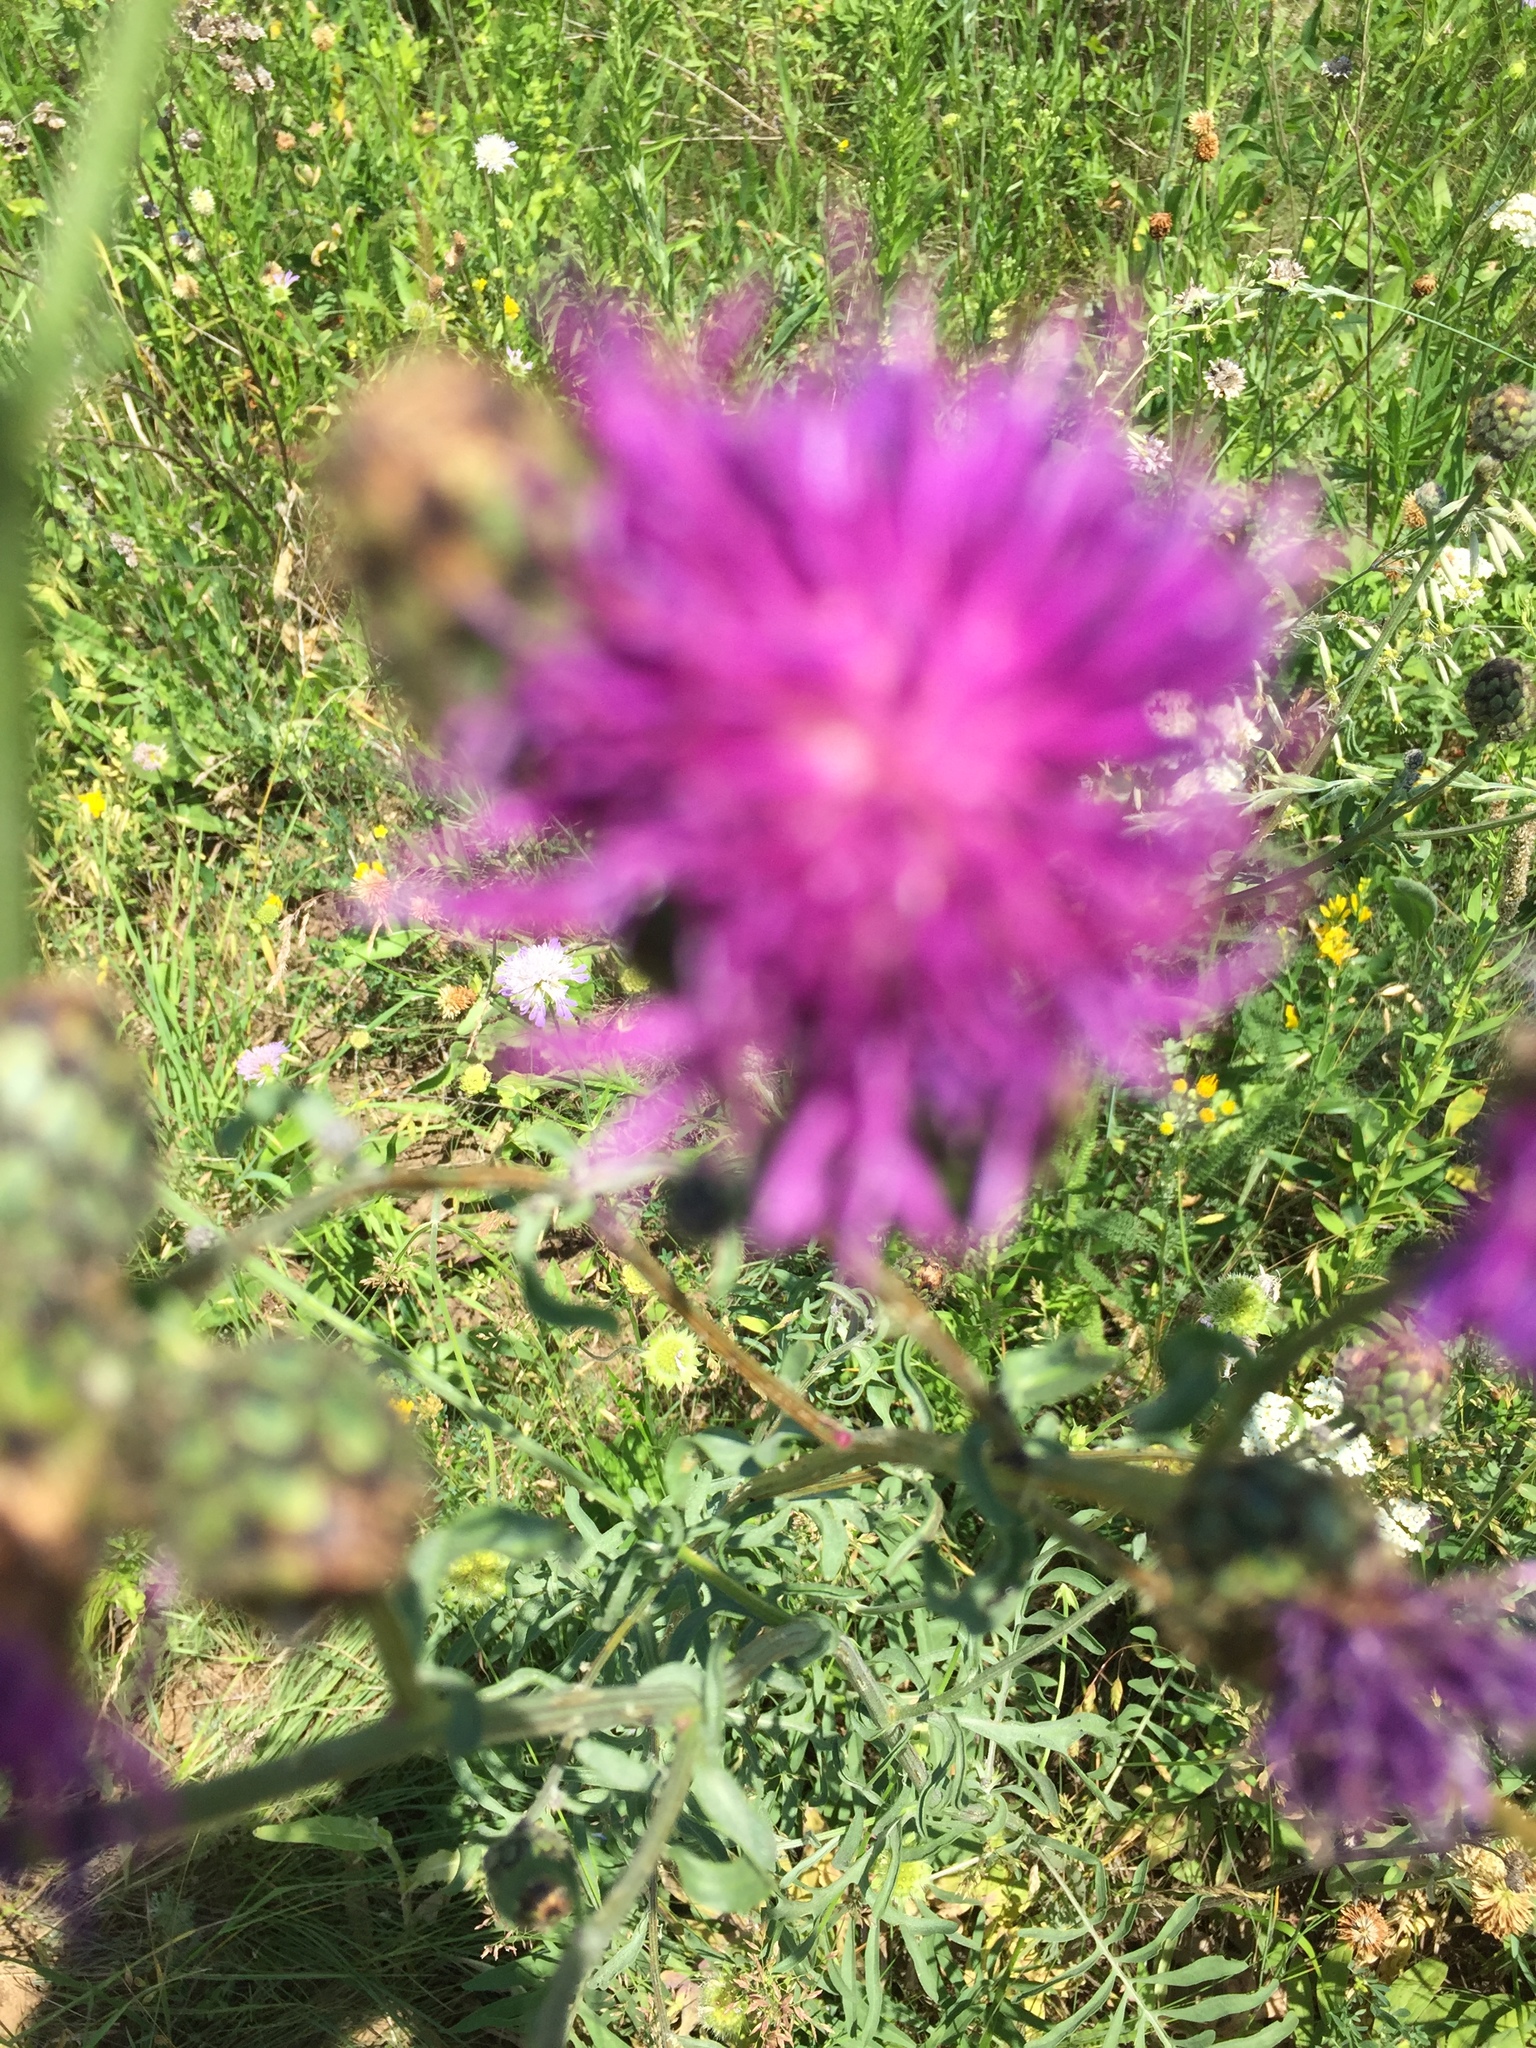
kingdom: Plantae
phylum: Tracheophyta
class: Magnoliopsida
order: Asterales
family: Asteraceae
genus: Centaurea
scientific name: Centaurea scabiosa
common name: Greater knapweed
